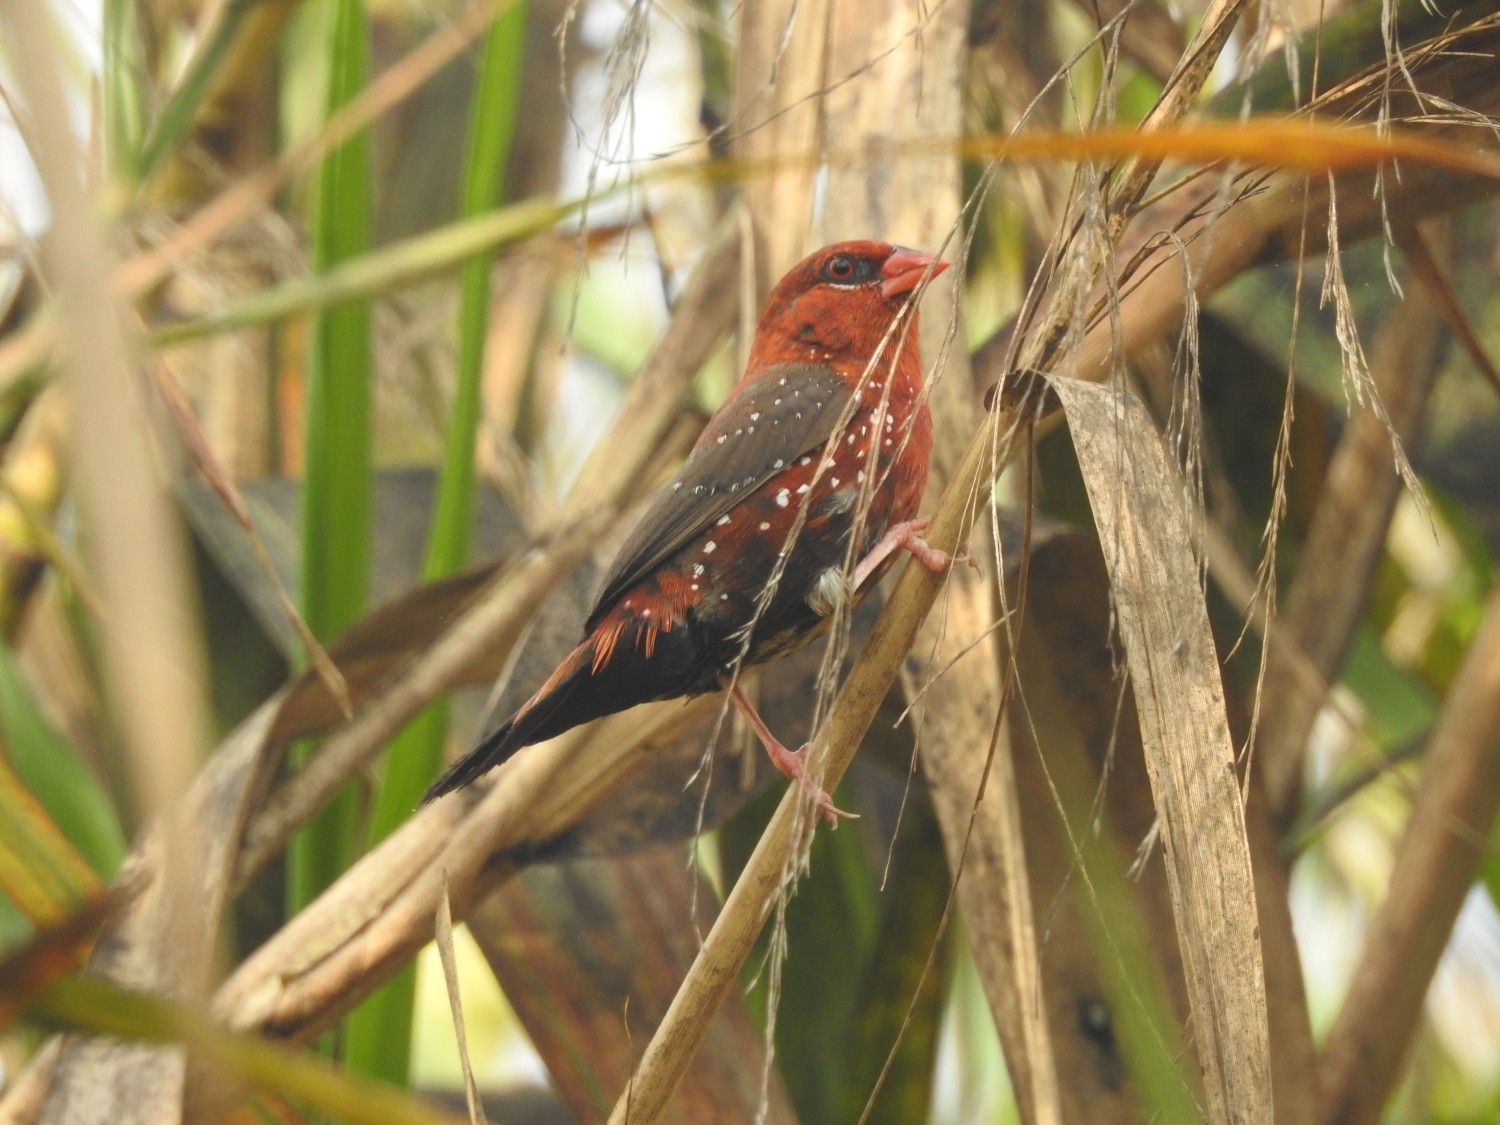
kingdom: Animalia
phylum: Chordata
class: Aves
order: Passeriformes
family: Estrildidae
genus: Amandava
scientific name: Amandava amandava
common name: Red avadavat
